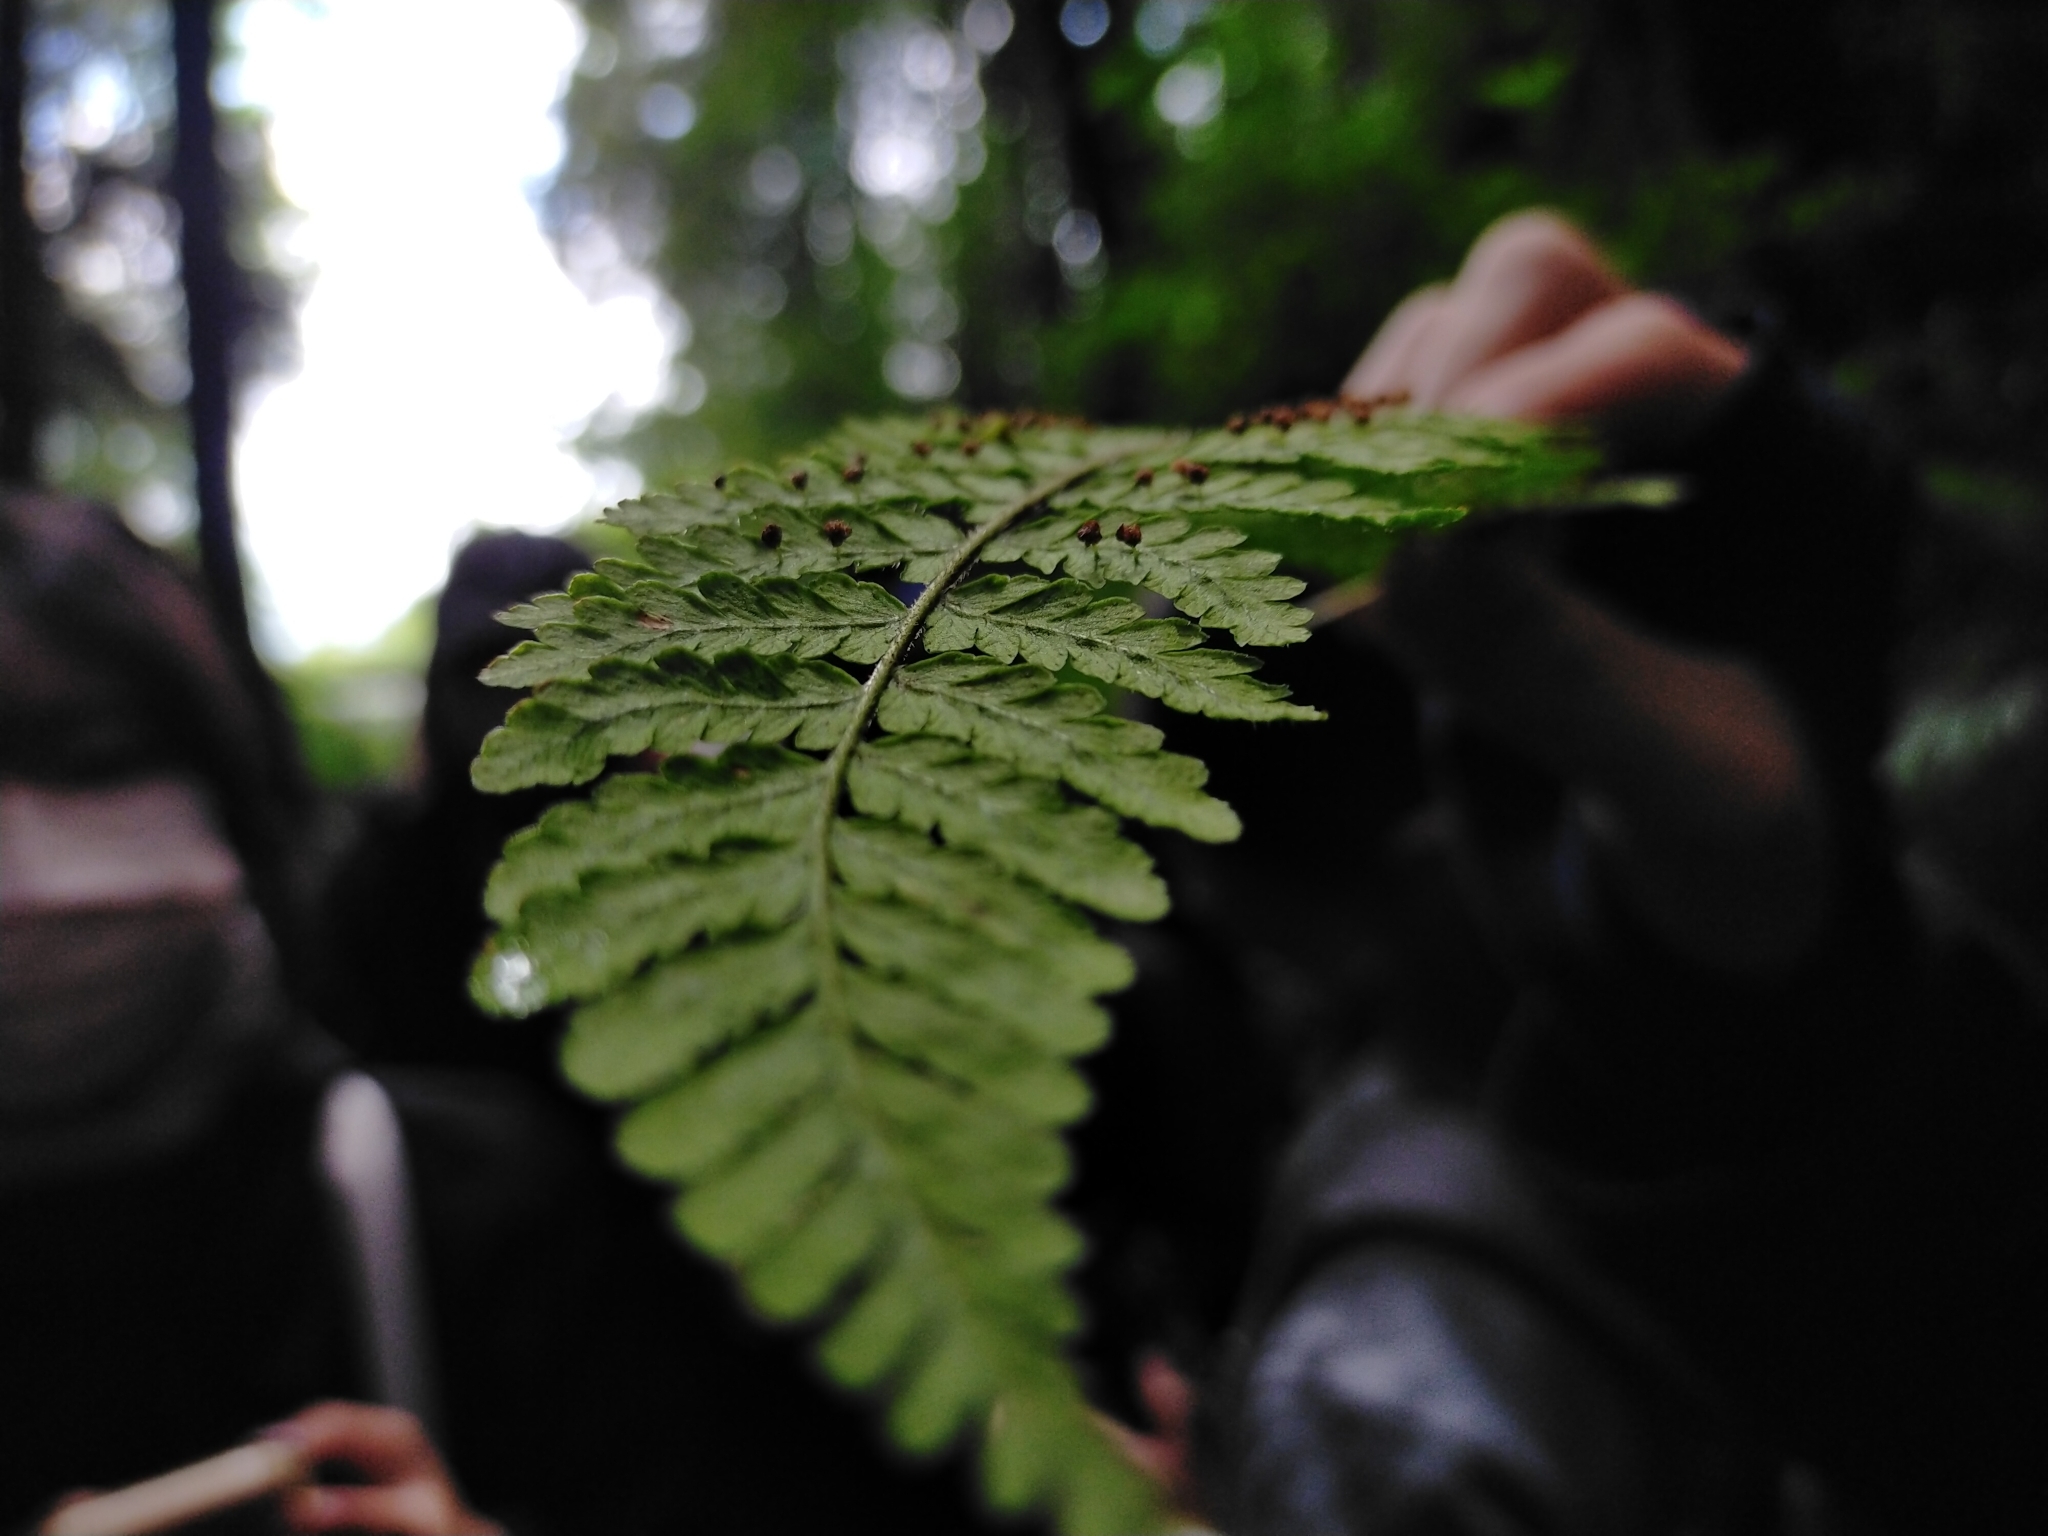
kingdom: Plantae
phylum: Tracheophyta
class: Polypodiopsida
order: Polypodiales
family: Dryopteridaceae
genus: Dryopteris
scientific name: Dryopteris peranema
